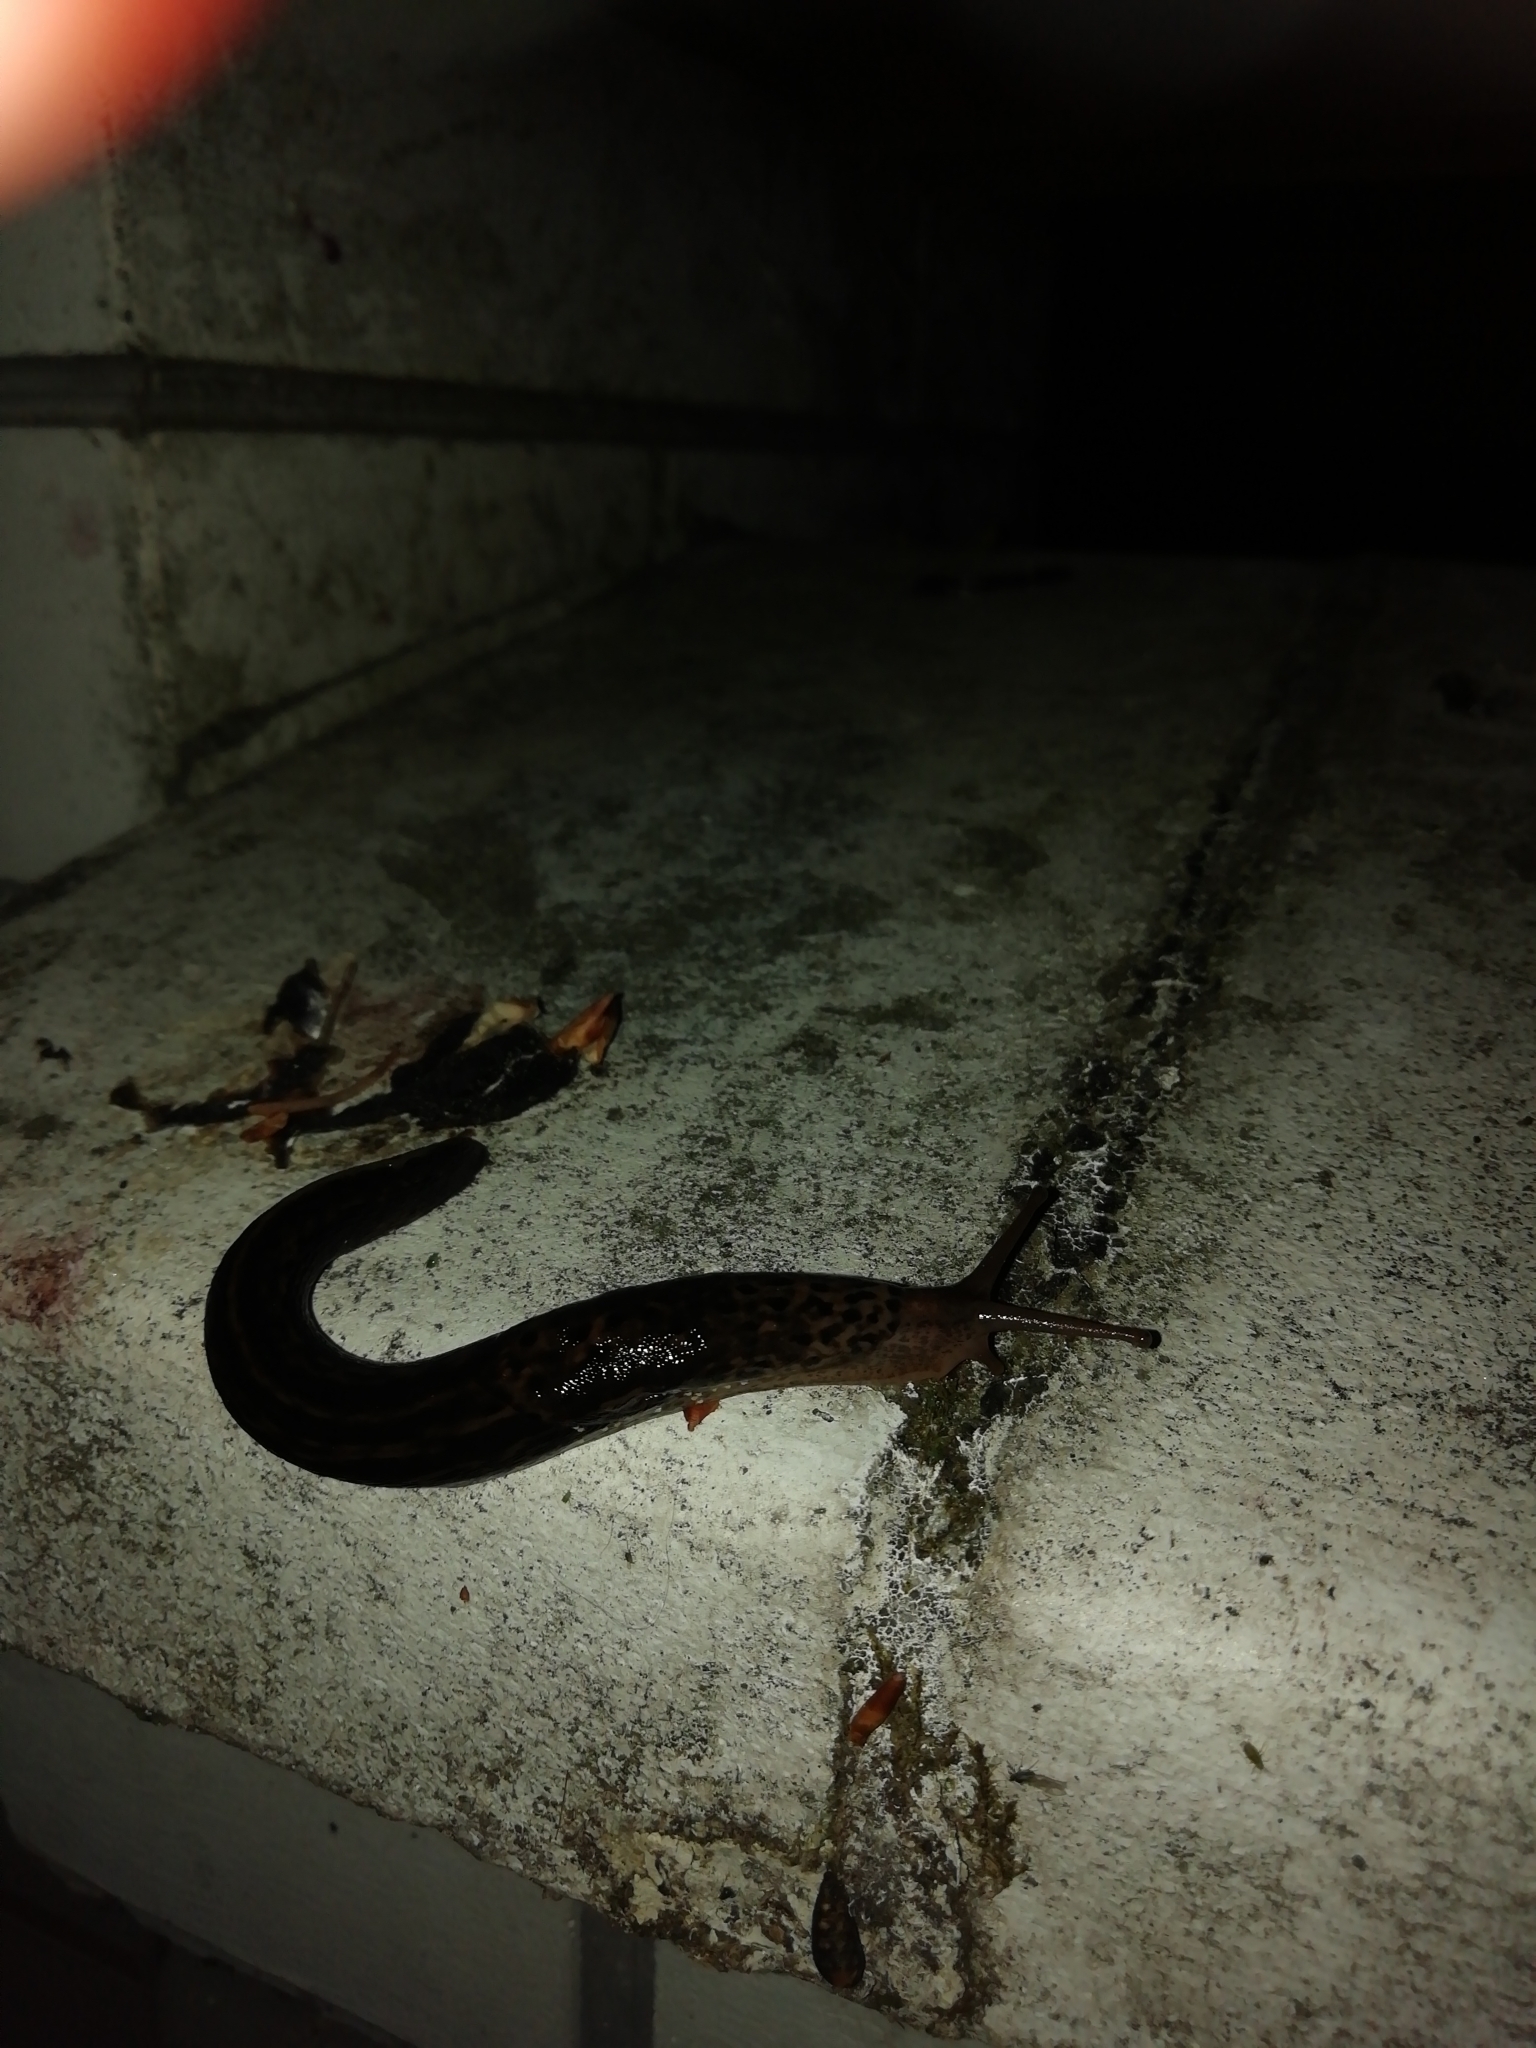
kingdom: Animalia
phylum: Mollusca
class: Gastropoda
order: Stylommatophora
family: Limacidae
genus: Limax
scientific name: Limax maximus
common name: Great grey slug
